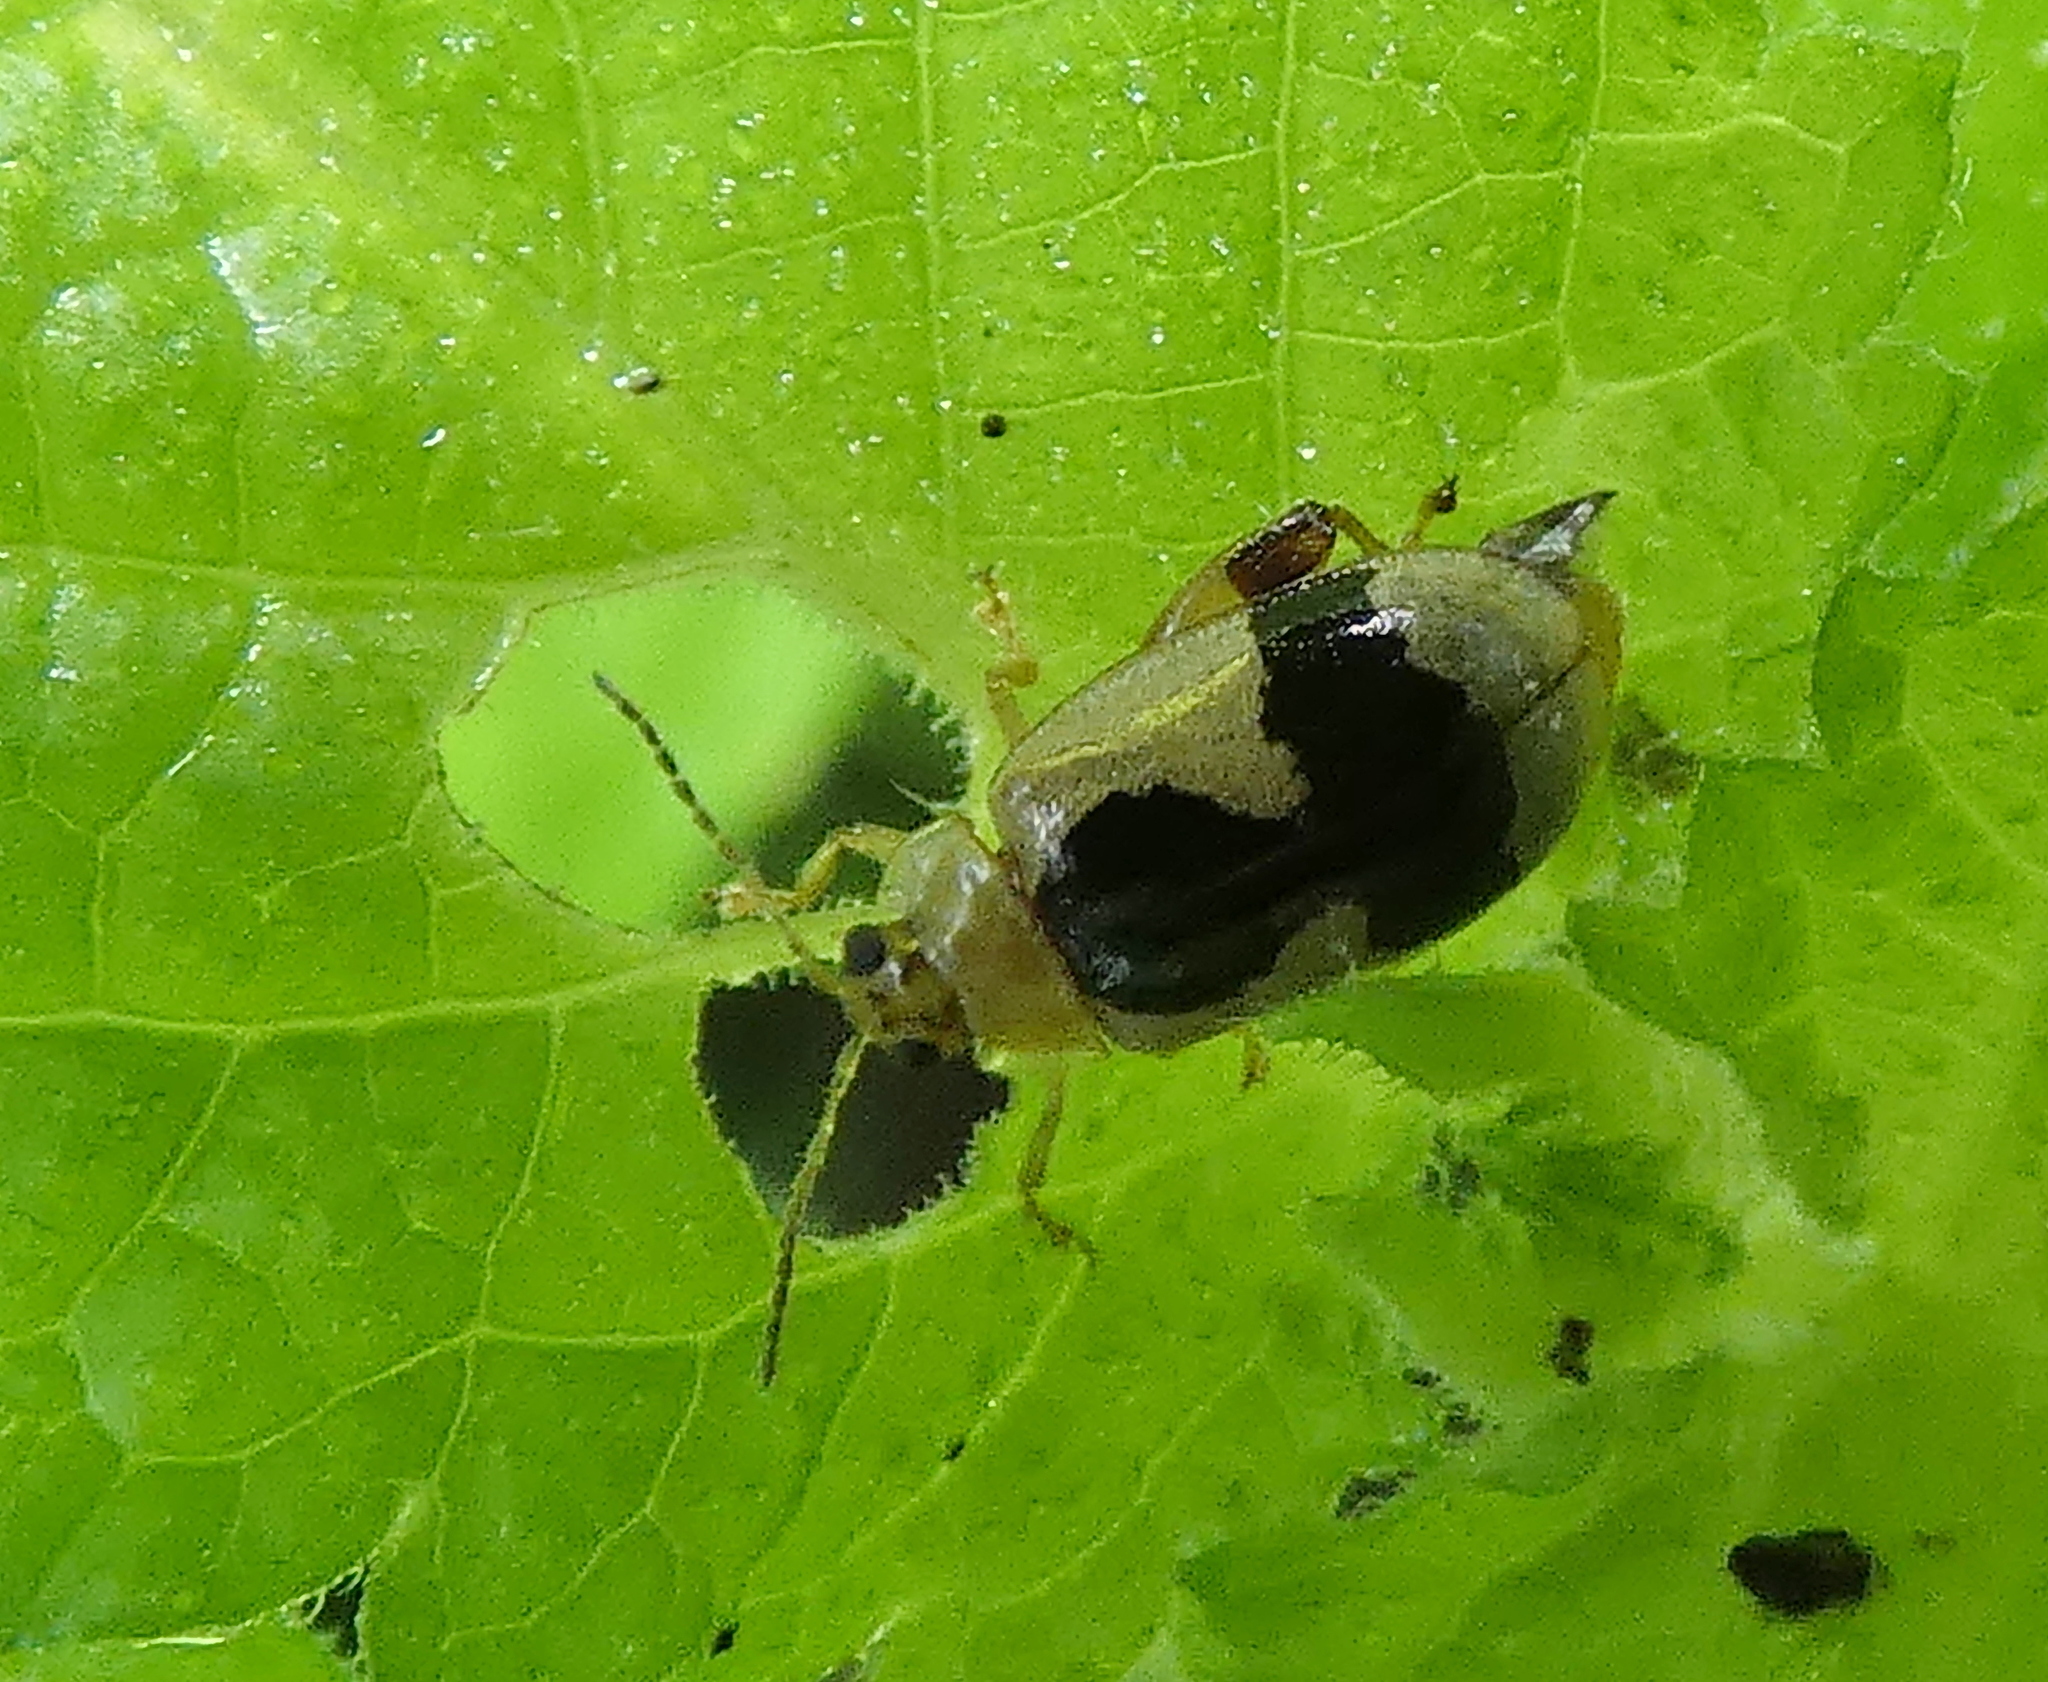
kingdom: Animalia
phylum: Arthropoda
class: Insecta
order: Coleoptera
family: Chrysomelidae
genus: Alagoasa
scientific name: Alagoasa
